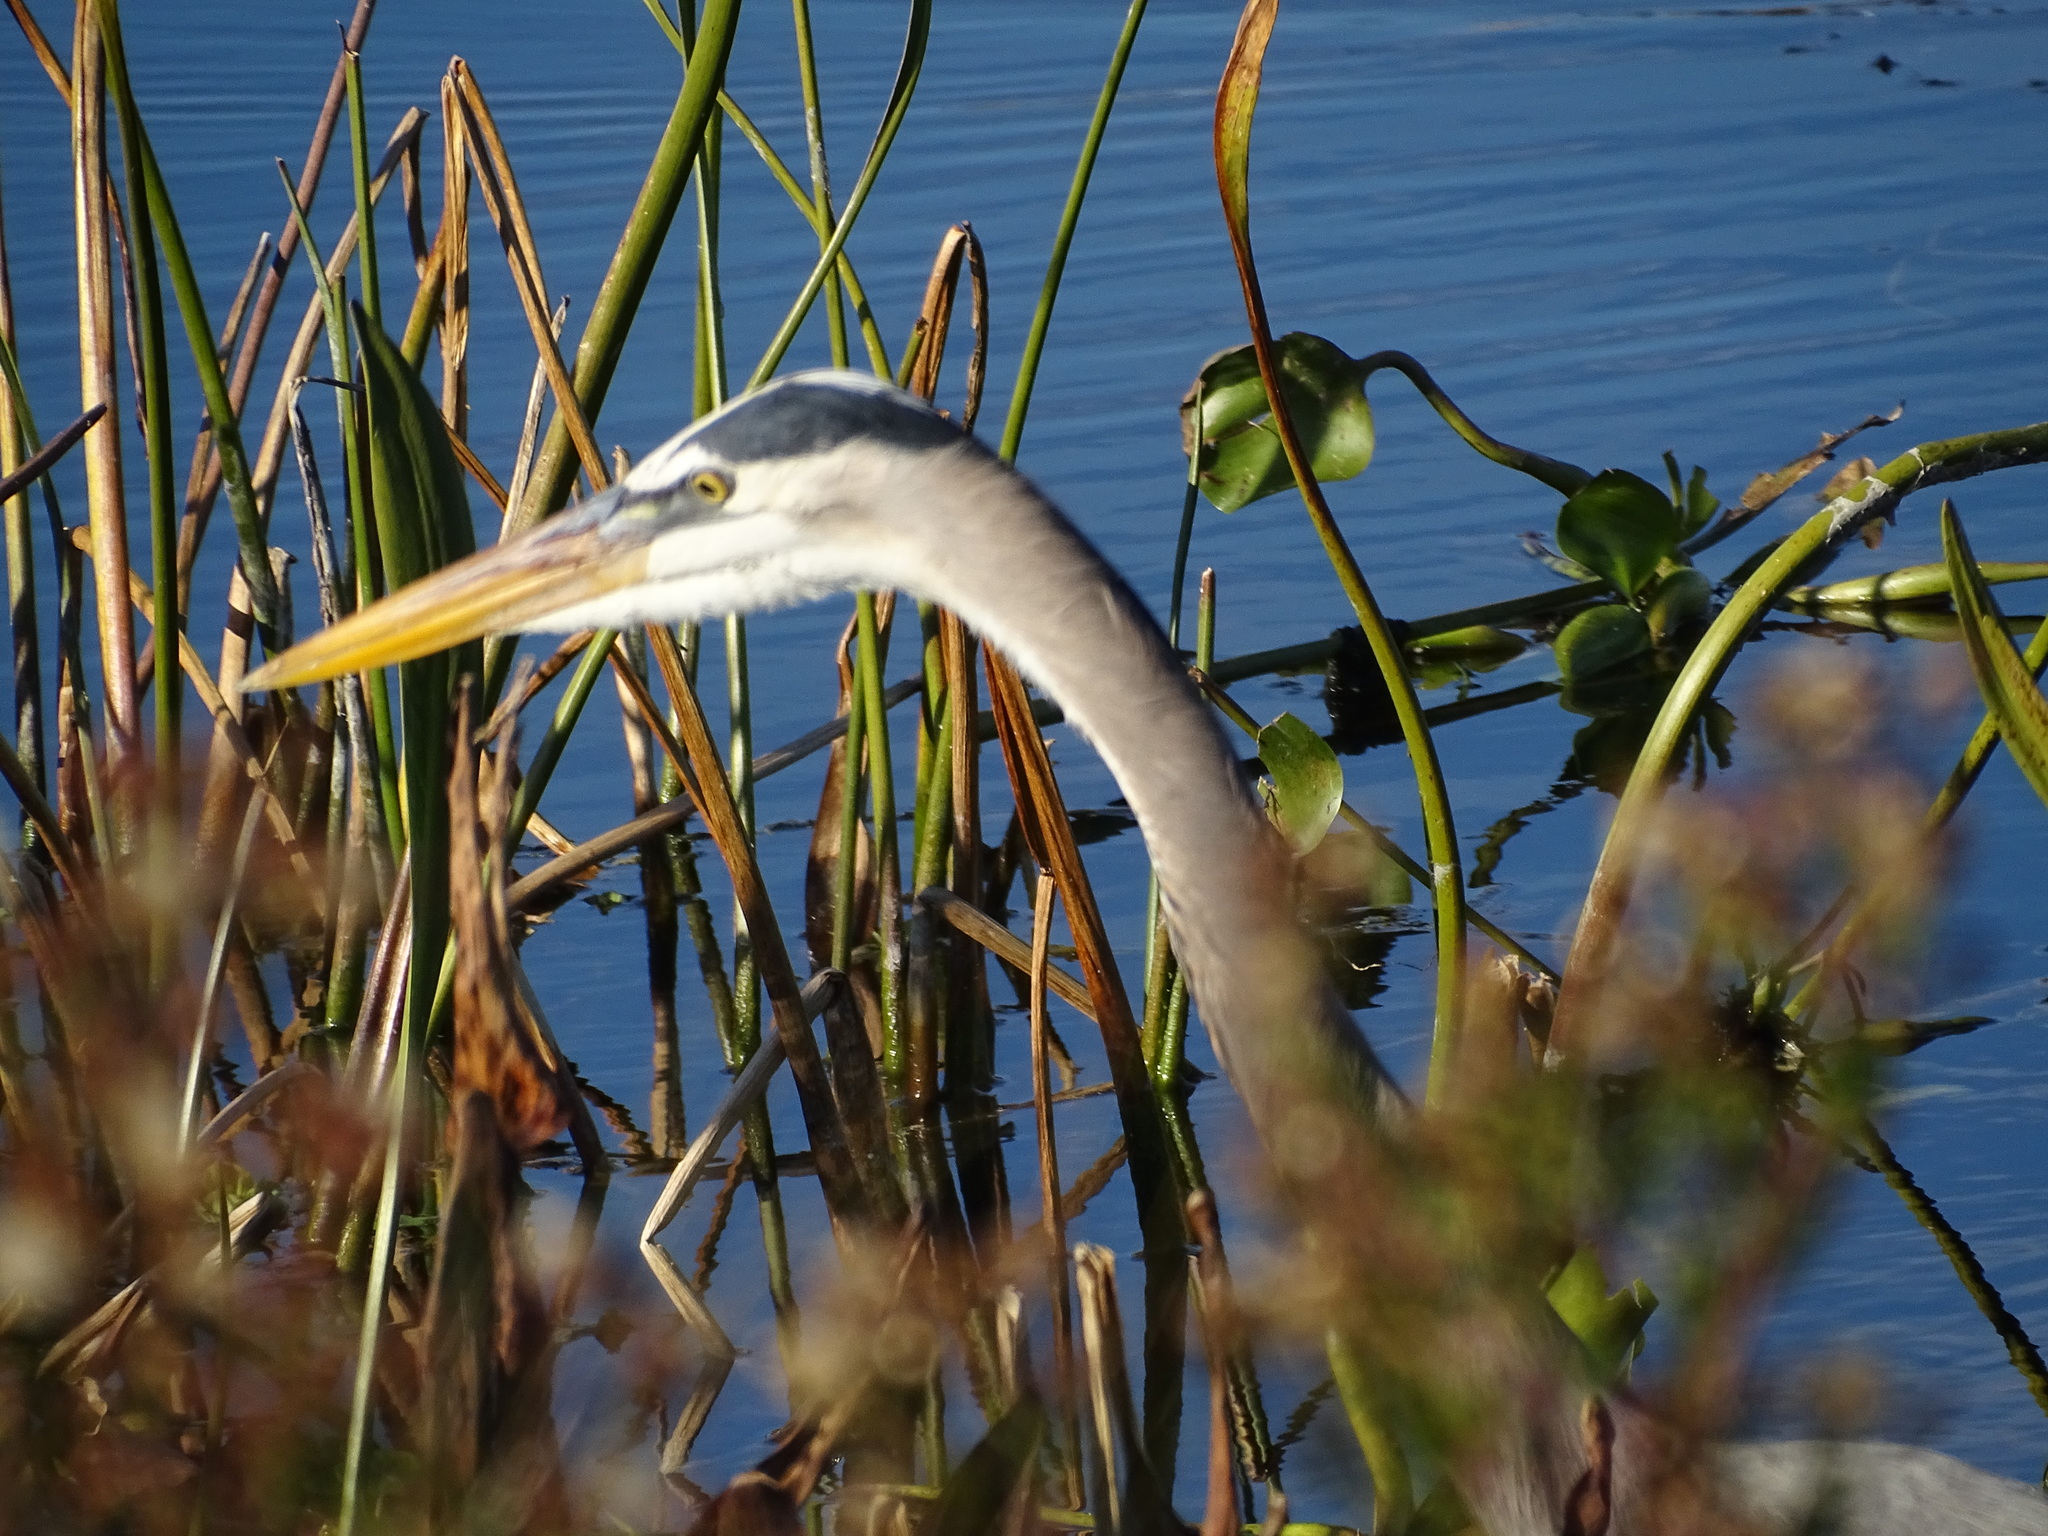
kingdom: Animalia
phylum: Chordata
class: Aves
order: Pelecaniformes
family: Ardeidae
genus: Ardea
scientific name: Ardea herodias
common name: Great blue heron
